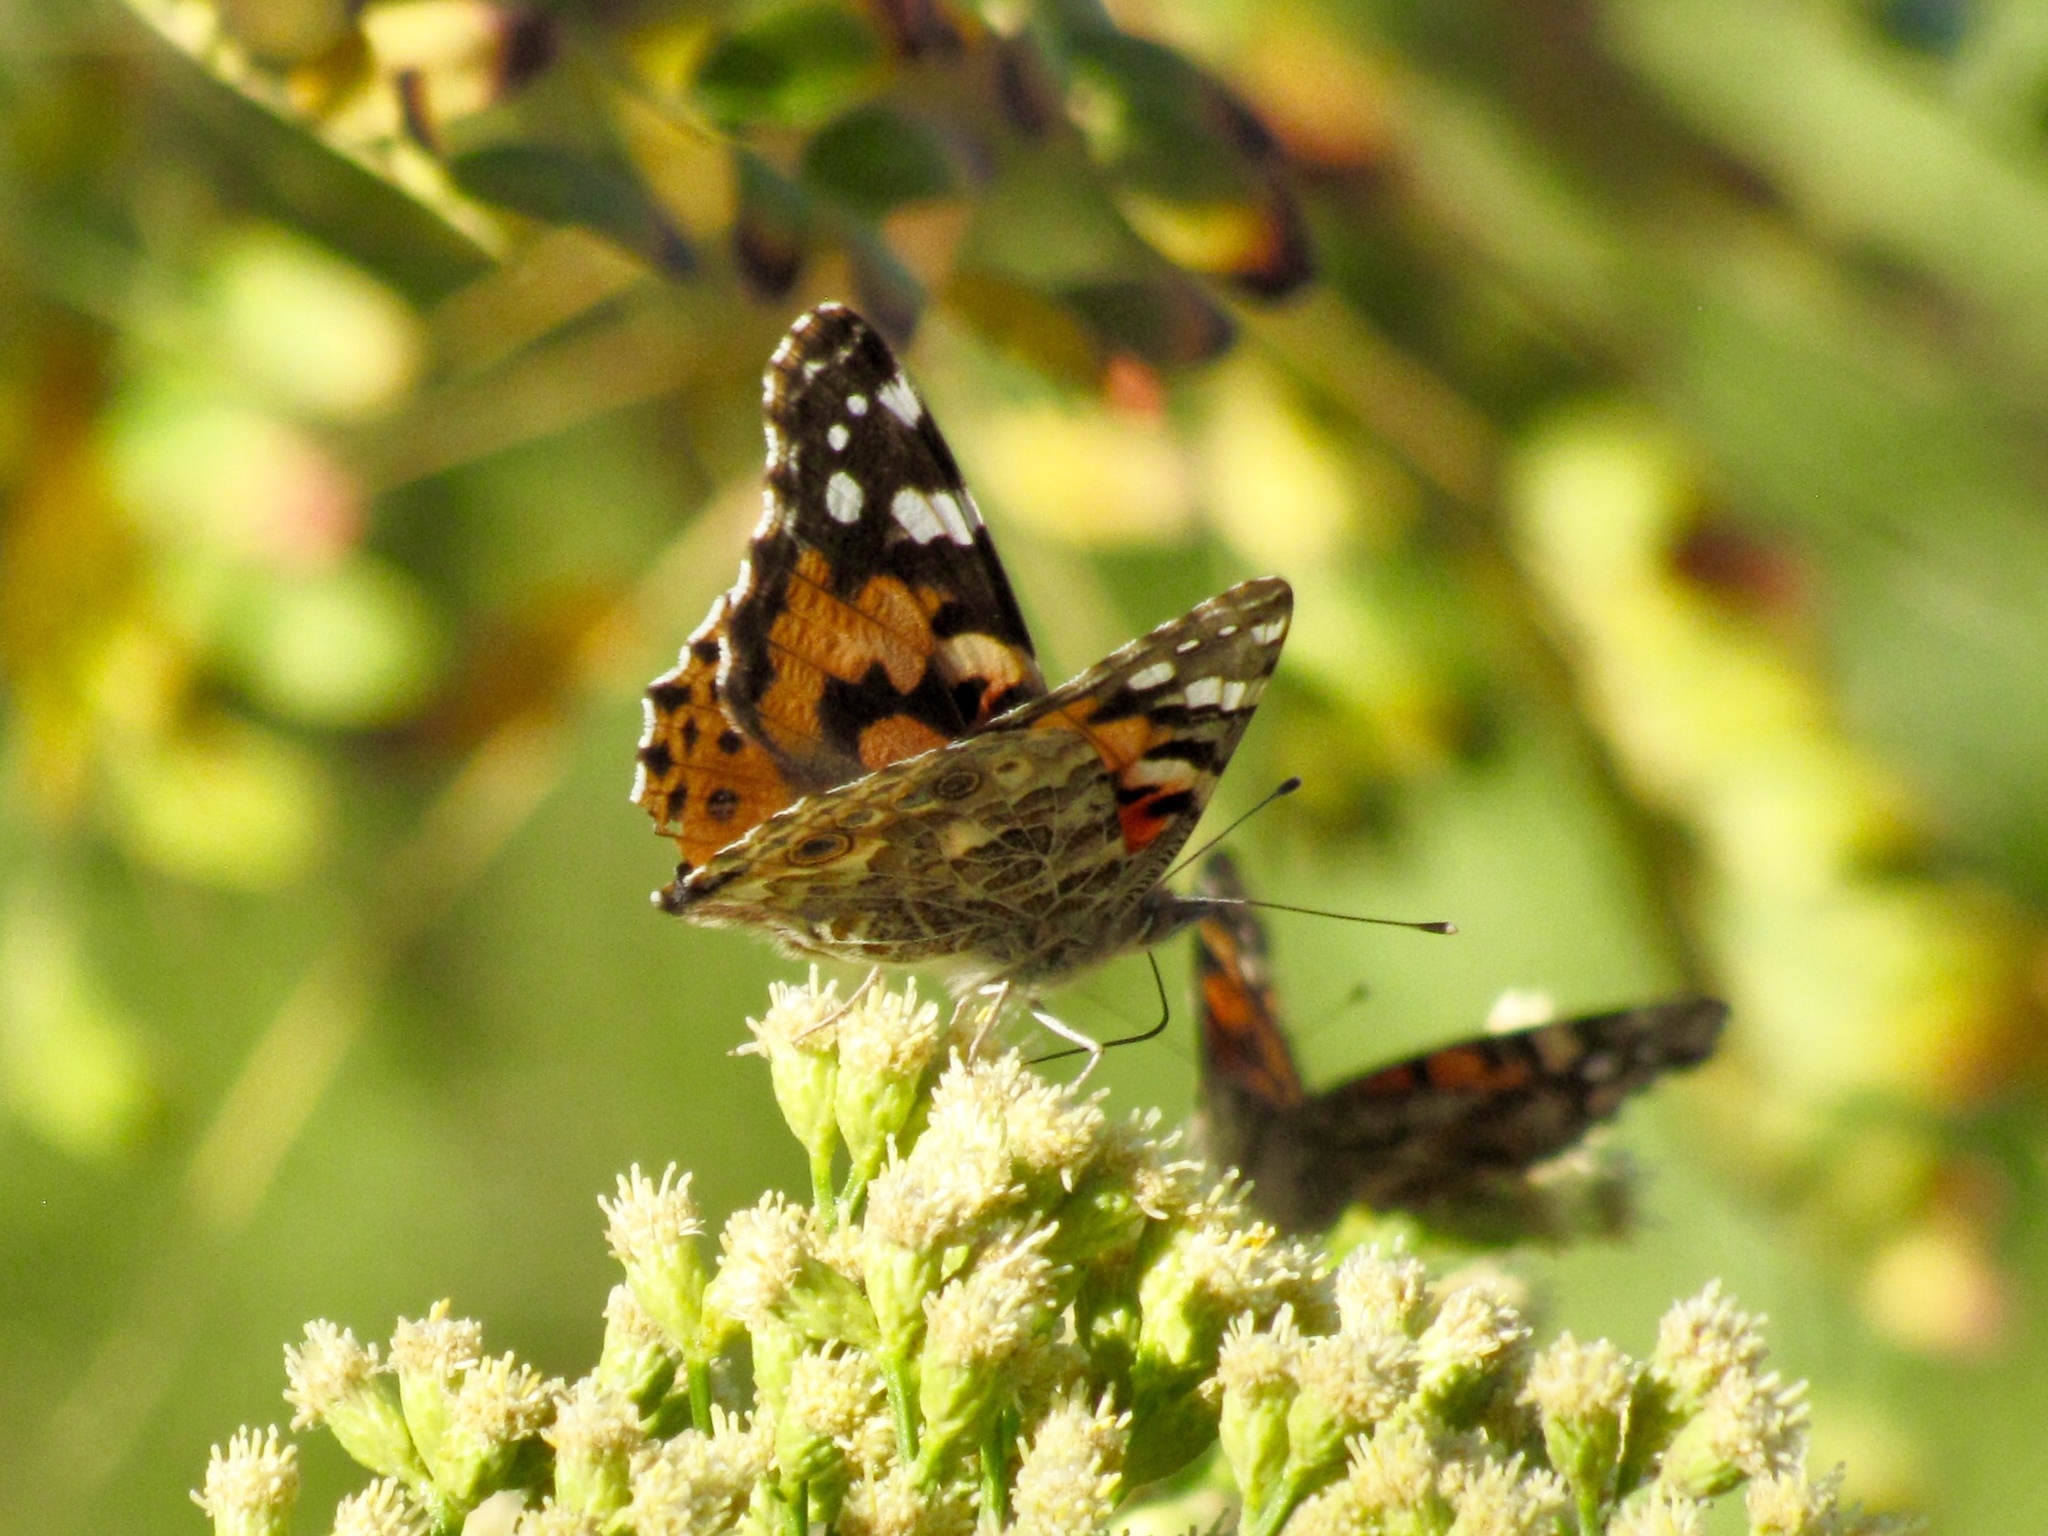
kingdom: Animalia
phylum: Arthropoda
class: Insecta
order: Lepidoptera
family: Nymphalidae
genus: Vanessa
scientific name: Vanessa cardui
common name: Painted lady
